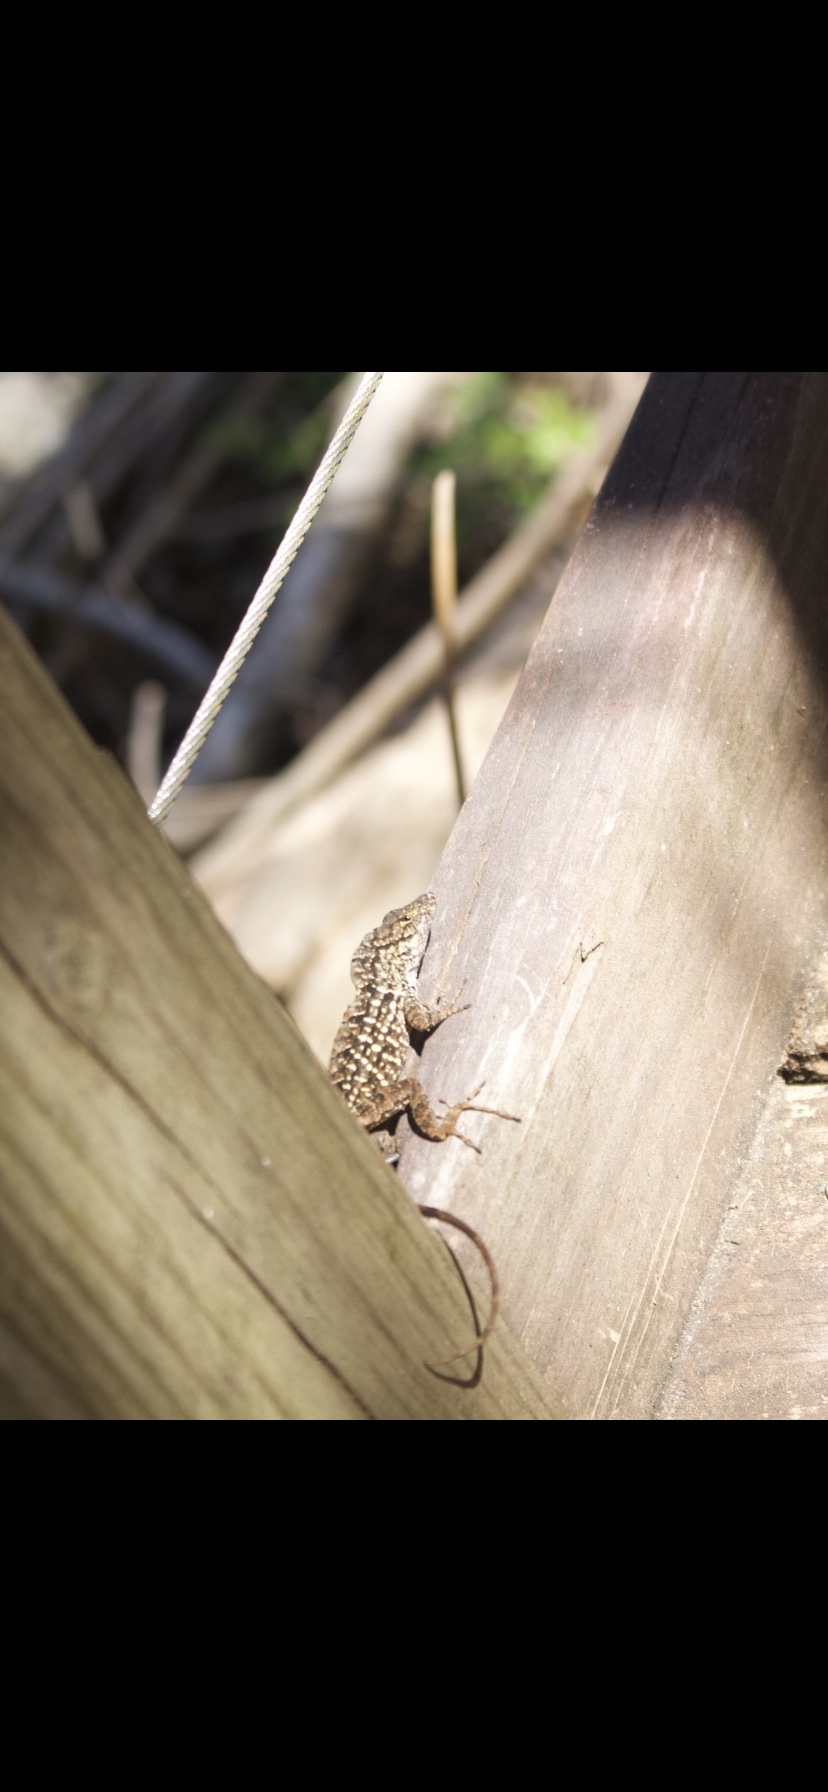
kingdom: Animalia
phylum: Chordata
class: Squamata
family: Dactyloidae
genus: Anolis
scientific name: Anolis sagrei
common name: Brown anole
